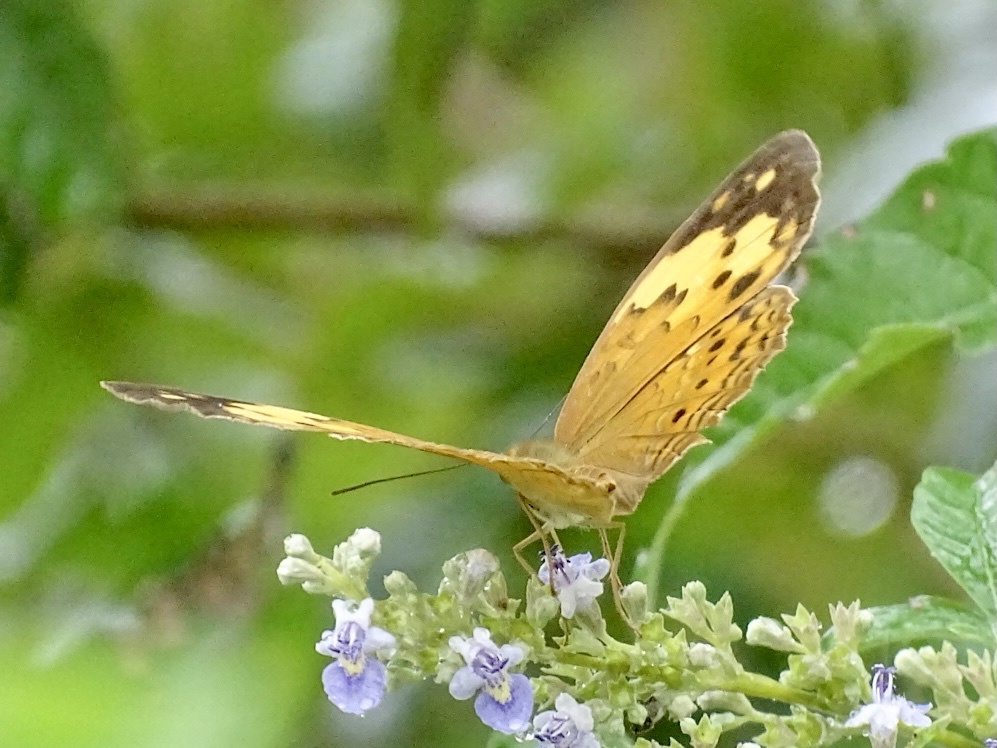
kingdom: Animalia
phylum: Arthropoda
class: Insecta
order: Lepidoptera
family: Nymphalidae
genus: Cupha
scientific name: Cupha erymanthis
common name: Rustic
